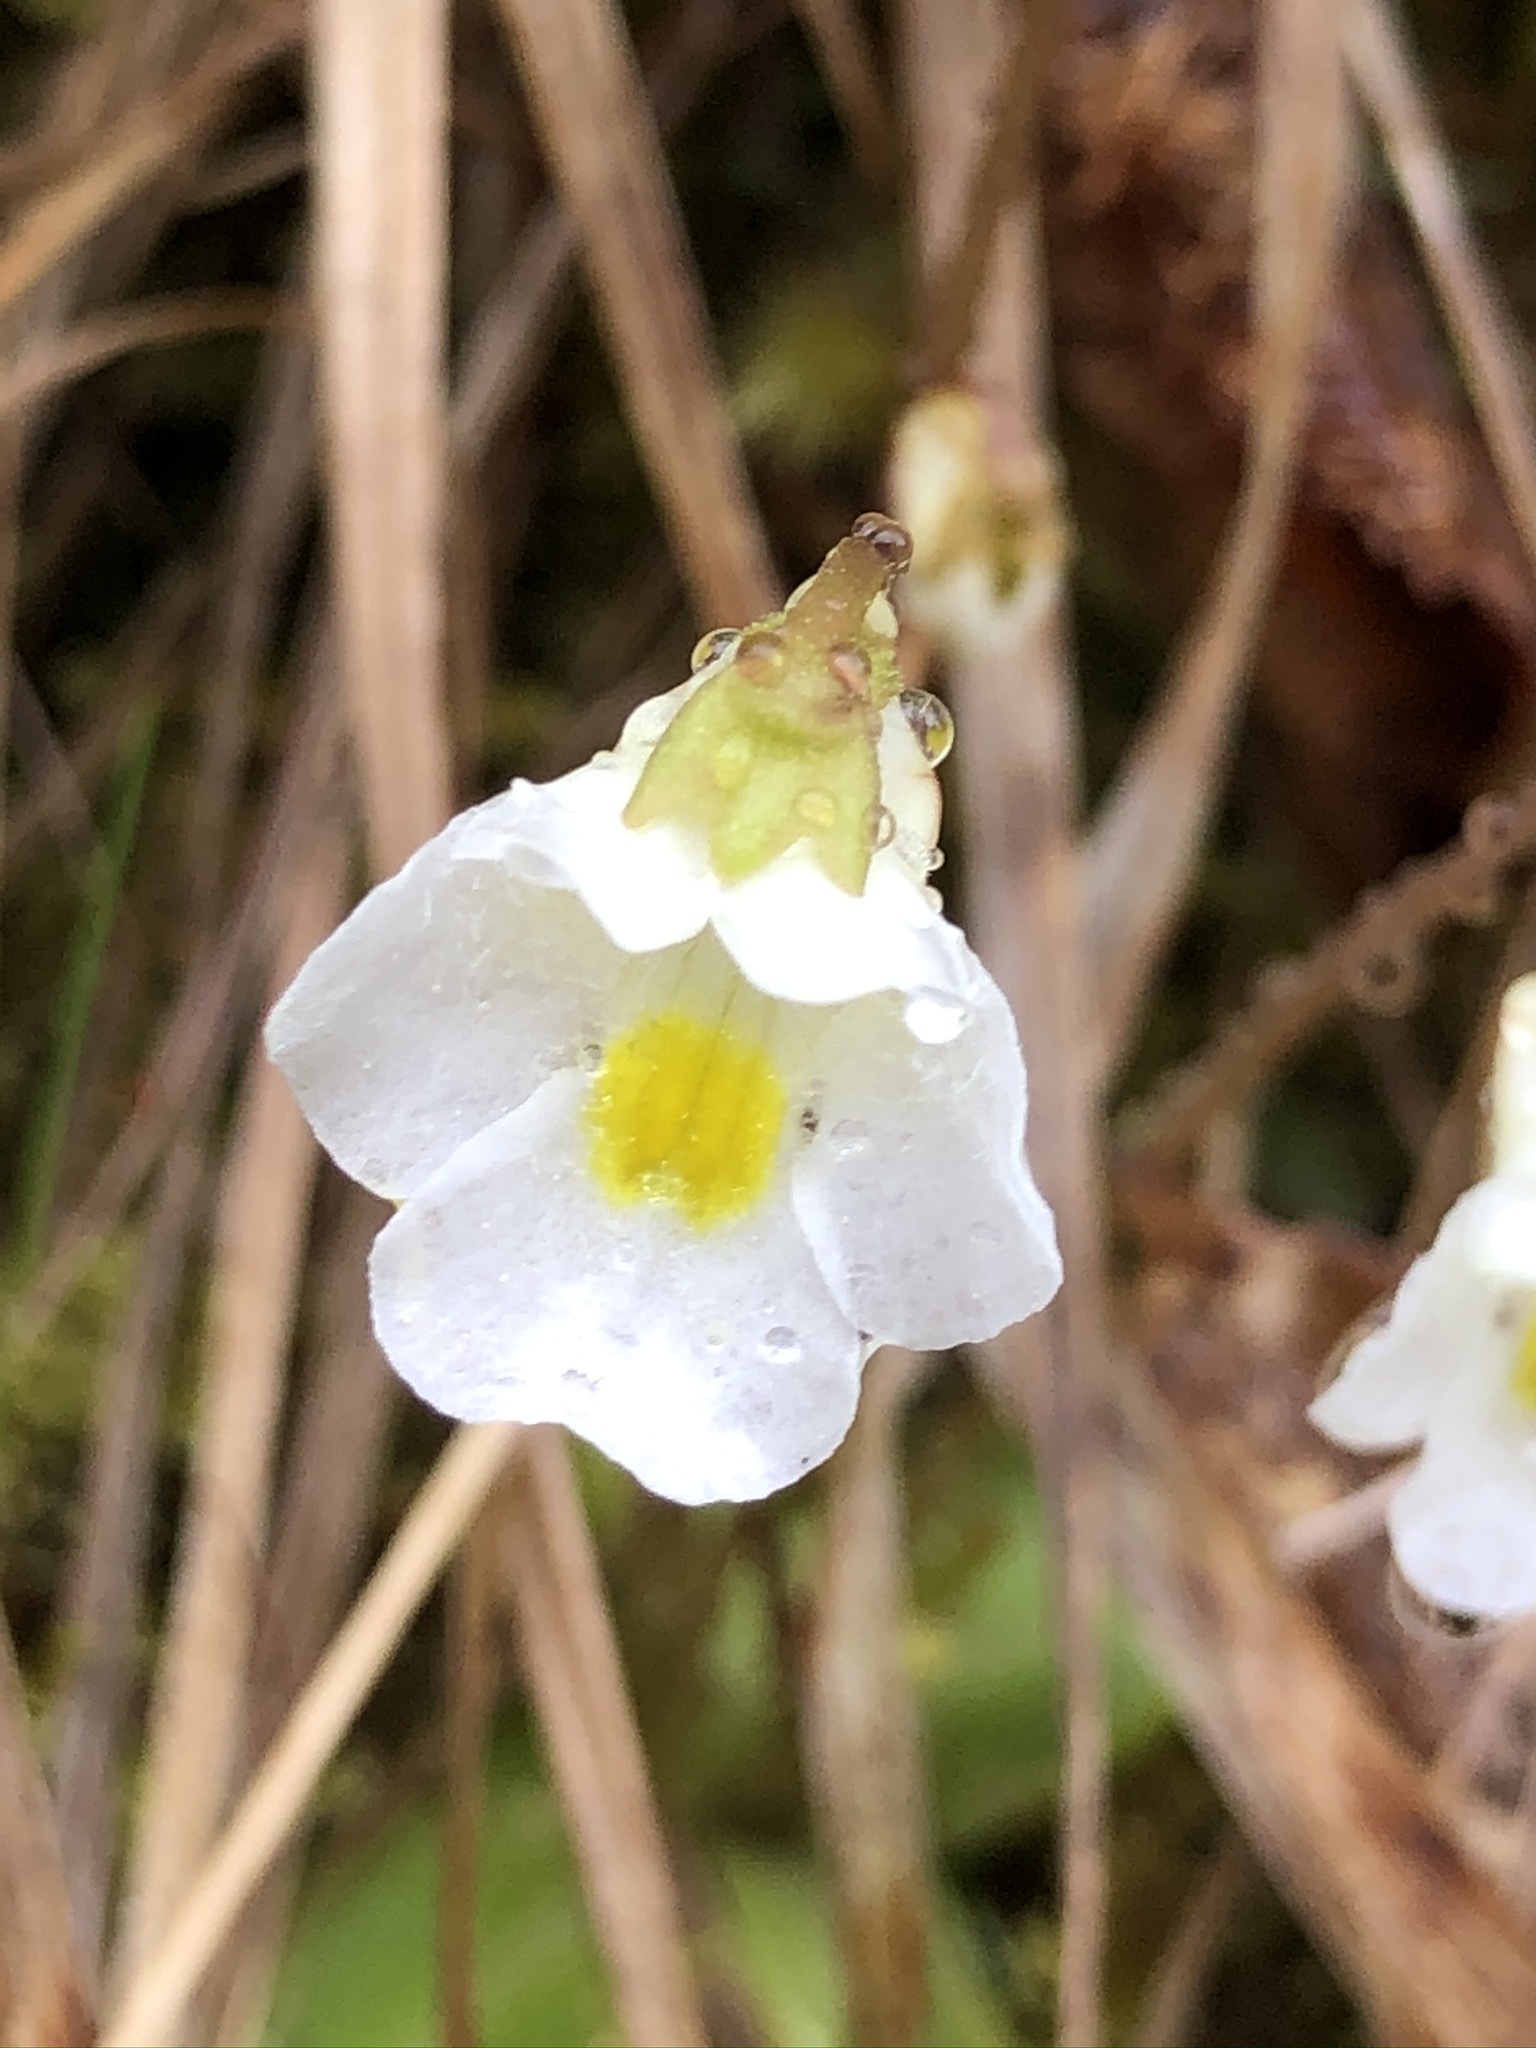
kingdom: Plantae
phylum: Tracheophyta
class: Magnoliopsida
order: Lamiales
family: Lentibulariaceae
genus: Pinguicula
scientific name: Pinguicula alpina
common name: Alpine butterwort
